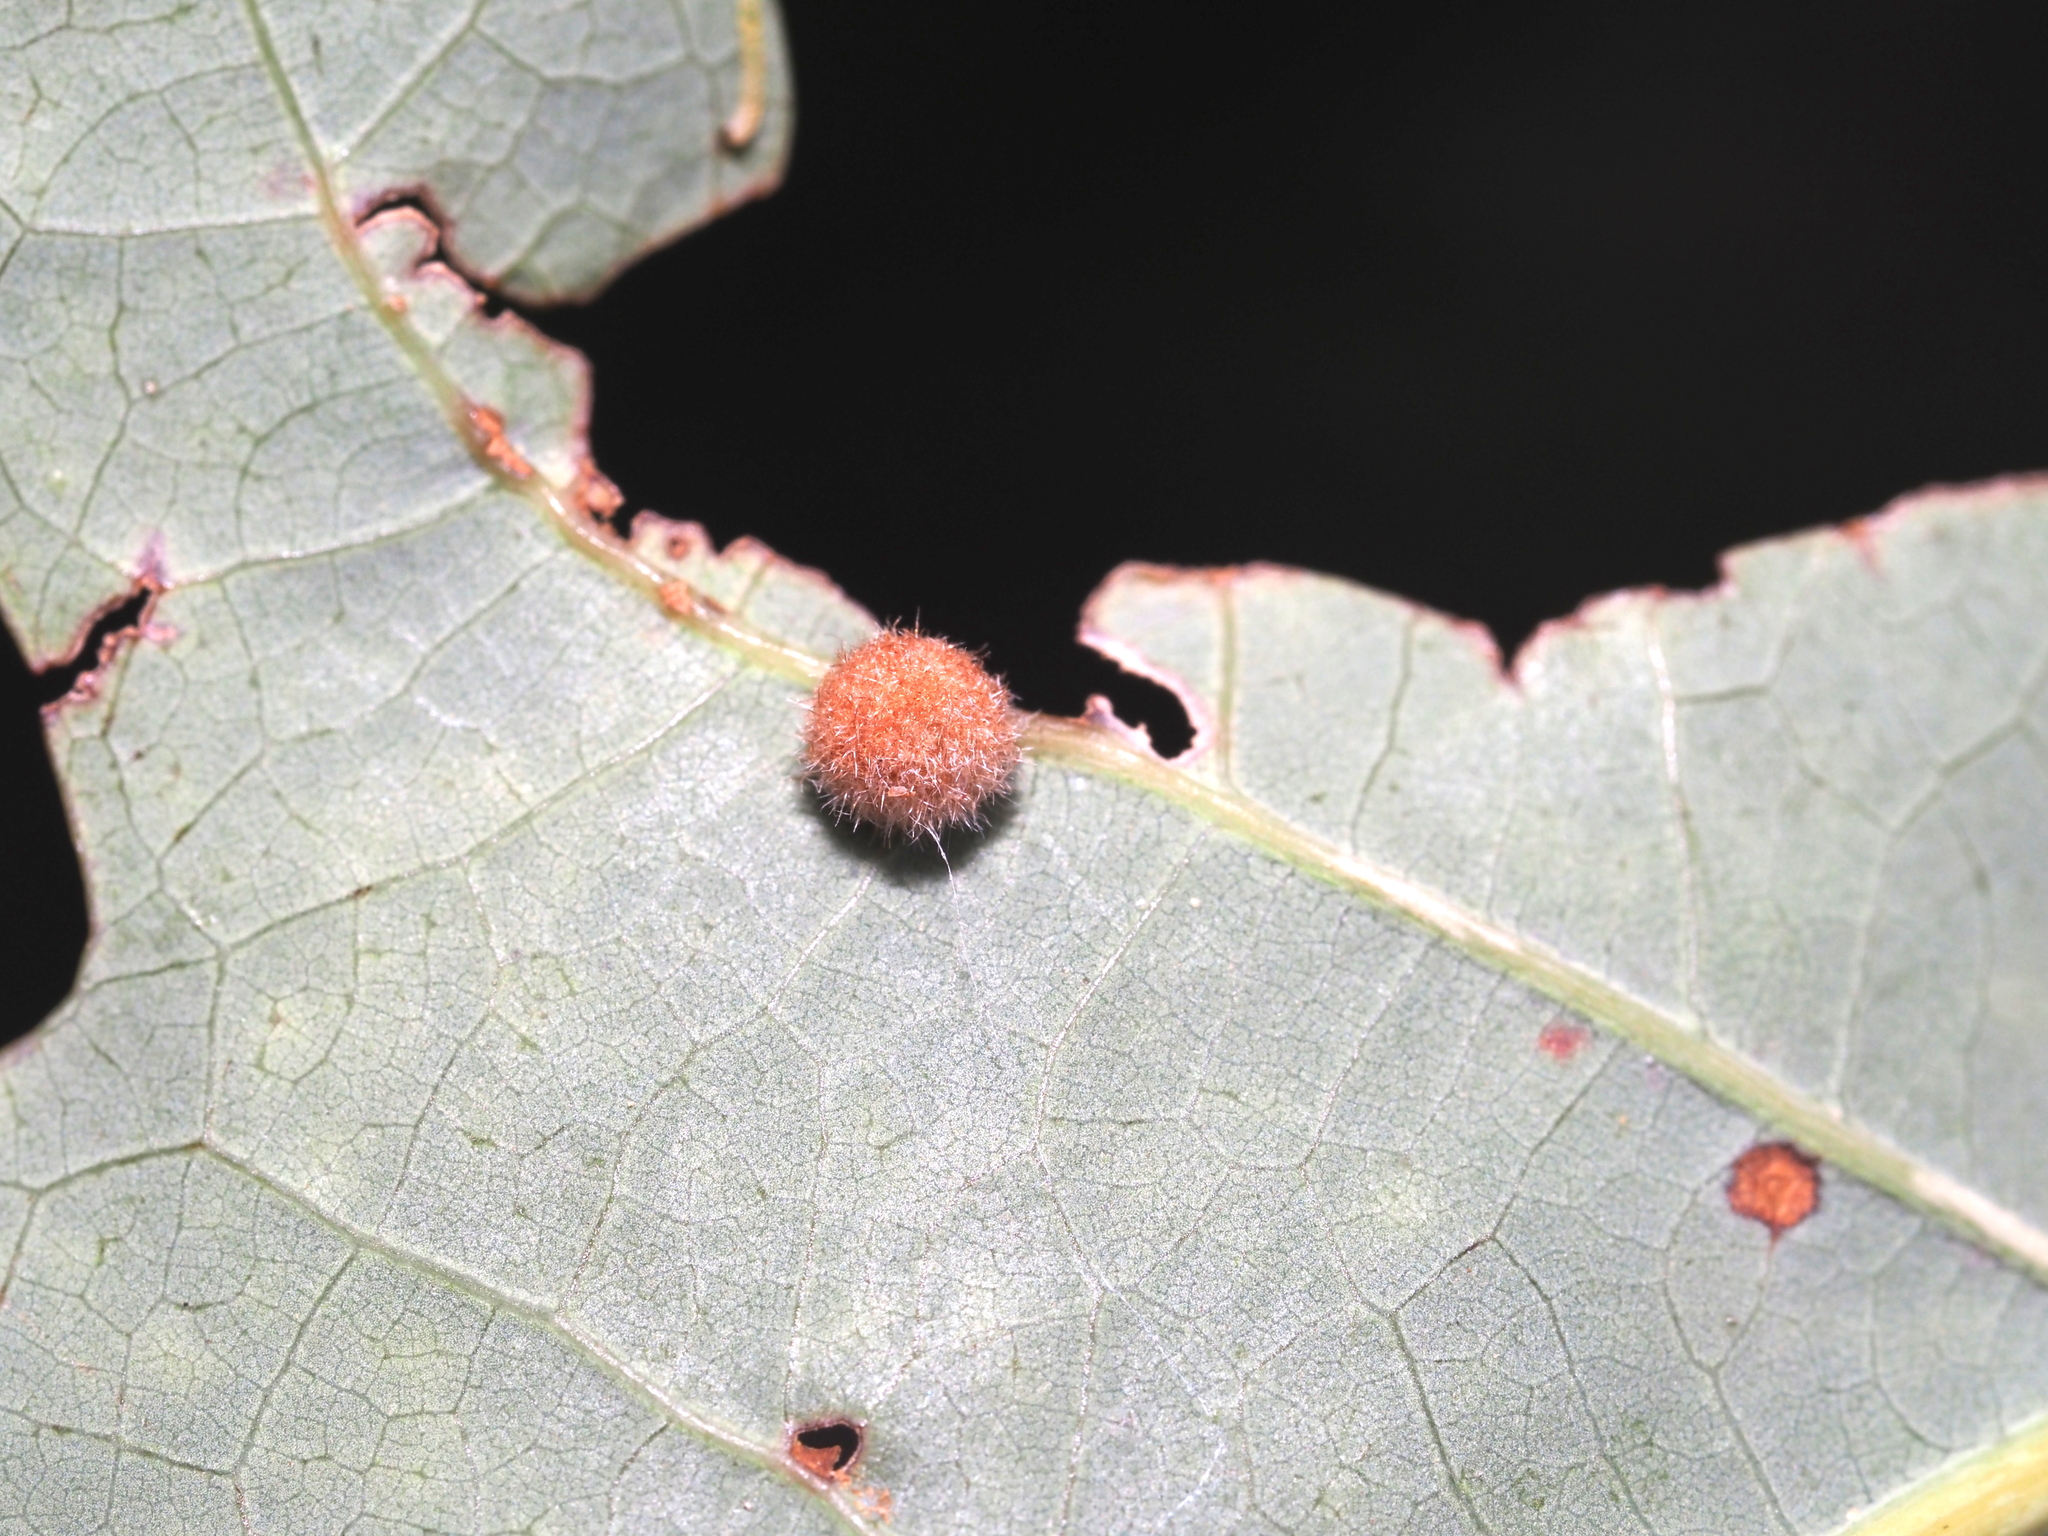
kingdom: Animalia
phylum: Arthropoda
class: Insecta
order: Hymenoptera
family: Cynipidae
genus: Philonix
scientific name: Philonix fulvicollis
